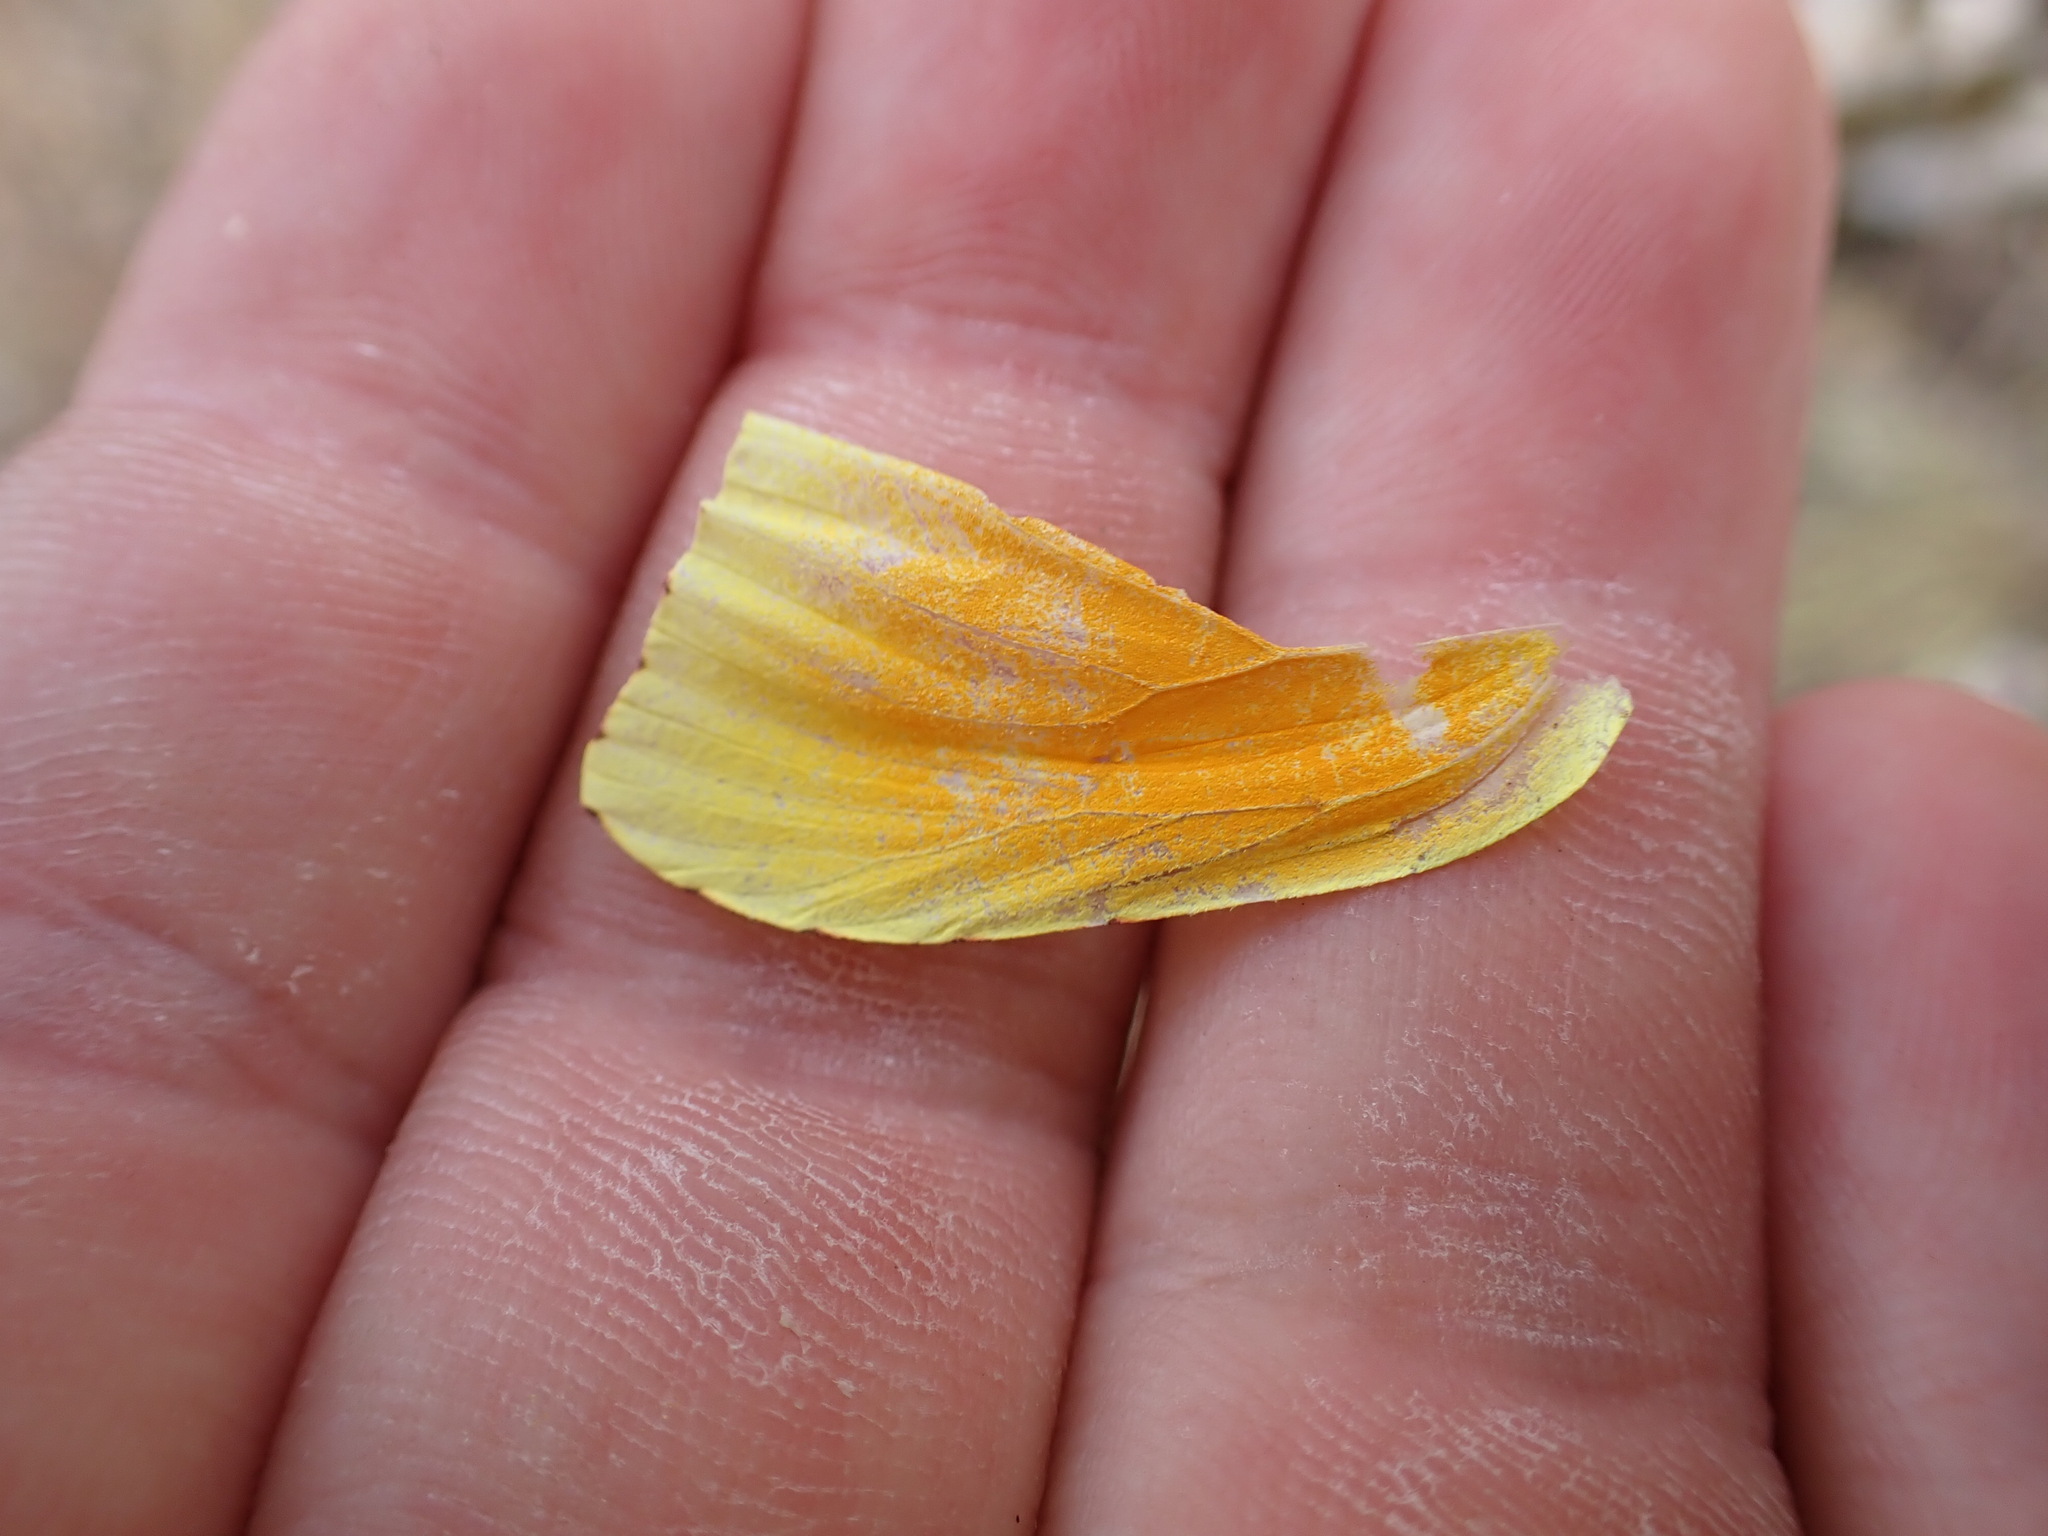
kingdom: Animalia
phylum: Arthropoda
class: Insecta
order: Lepidoptera
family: Pieridae
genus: Gonepteryx
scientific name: Gonepteryx cleopatra
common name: Cleopatra
